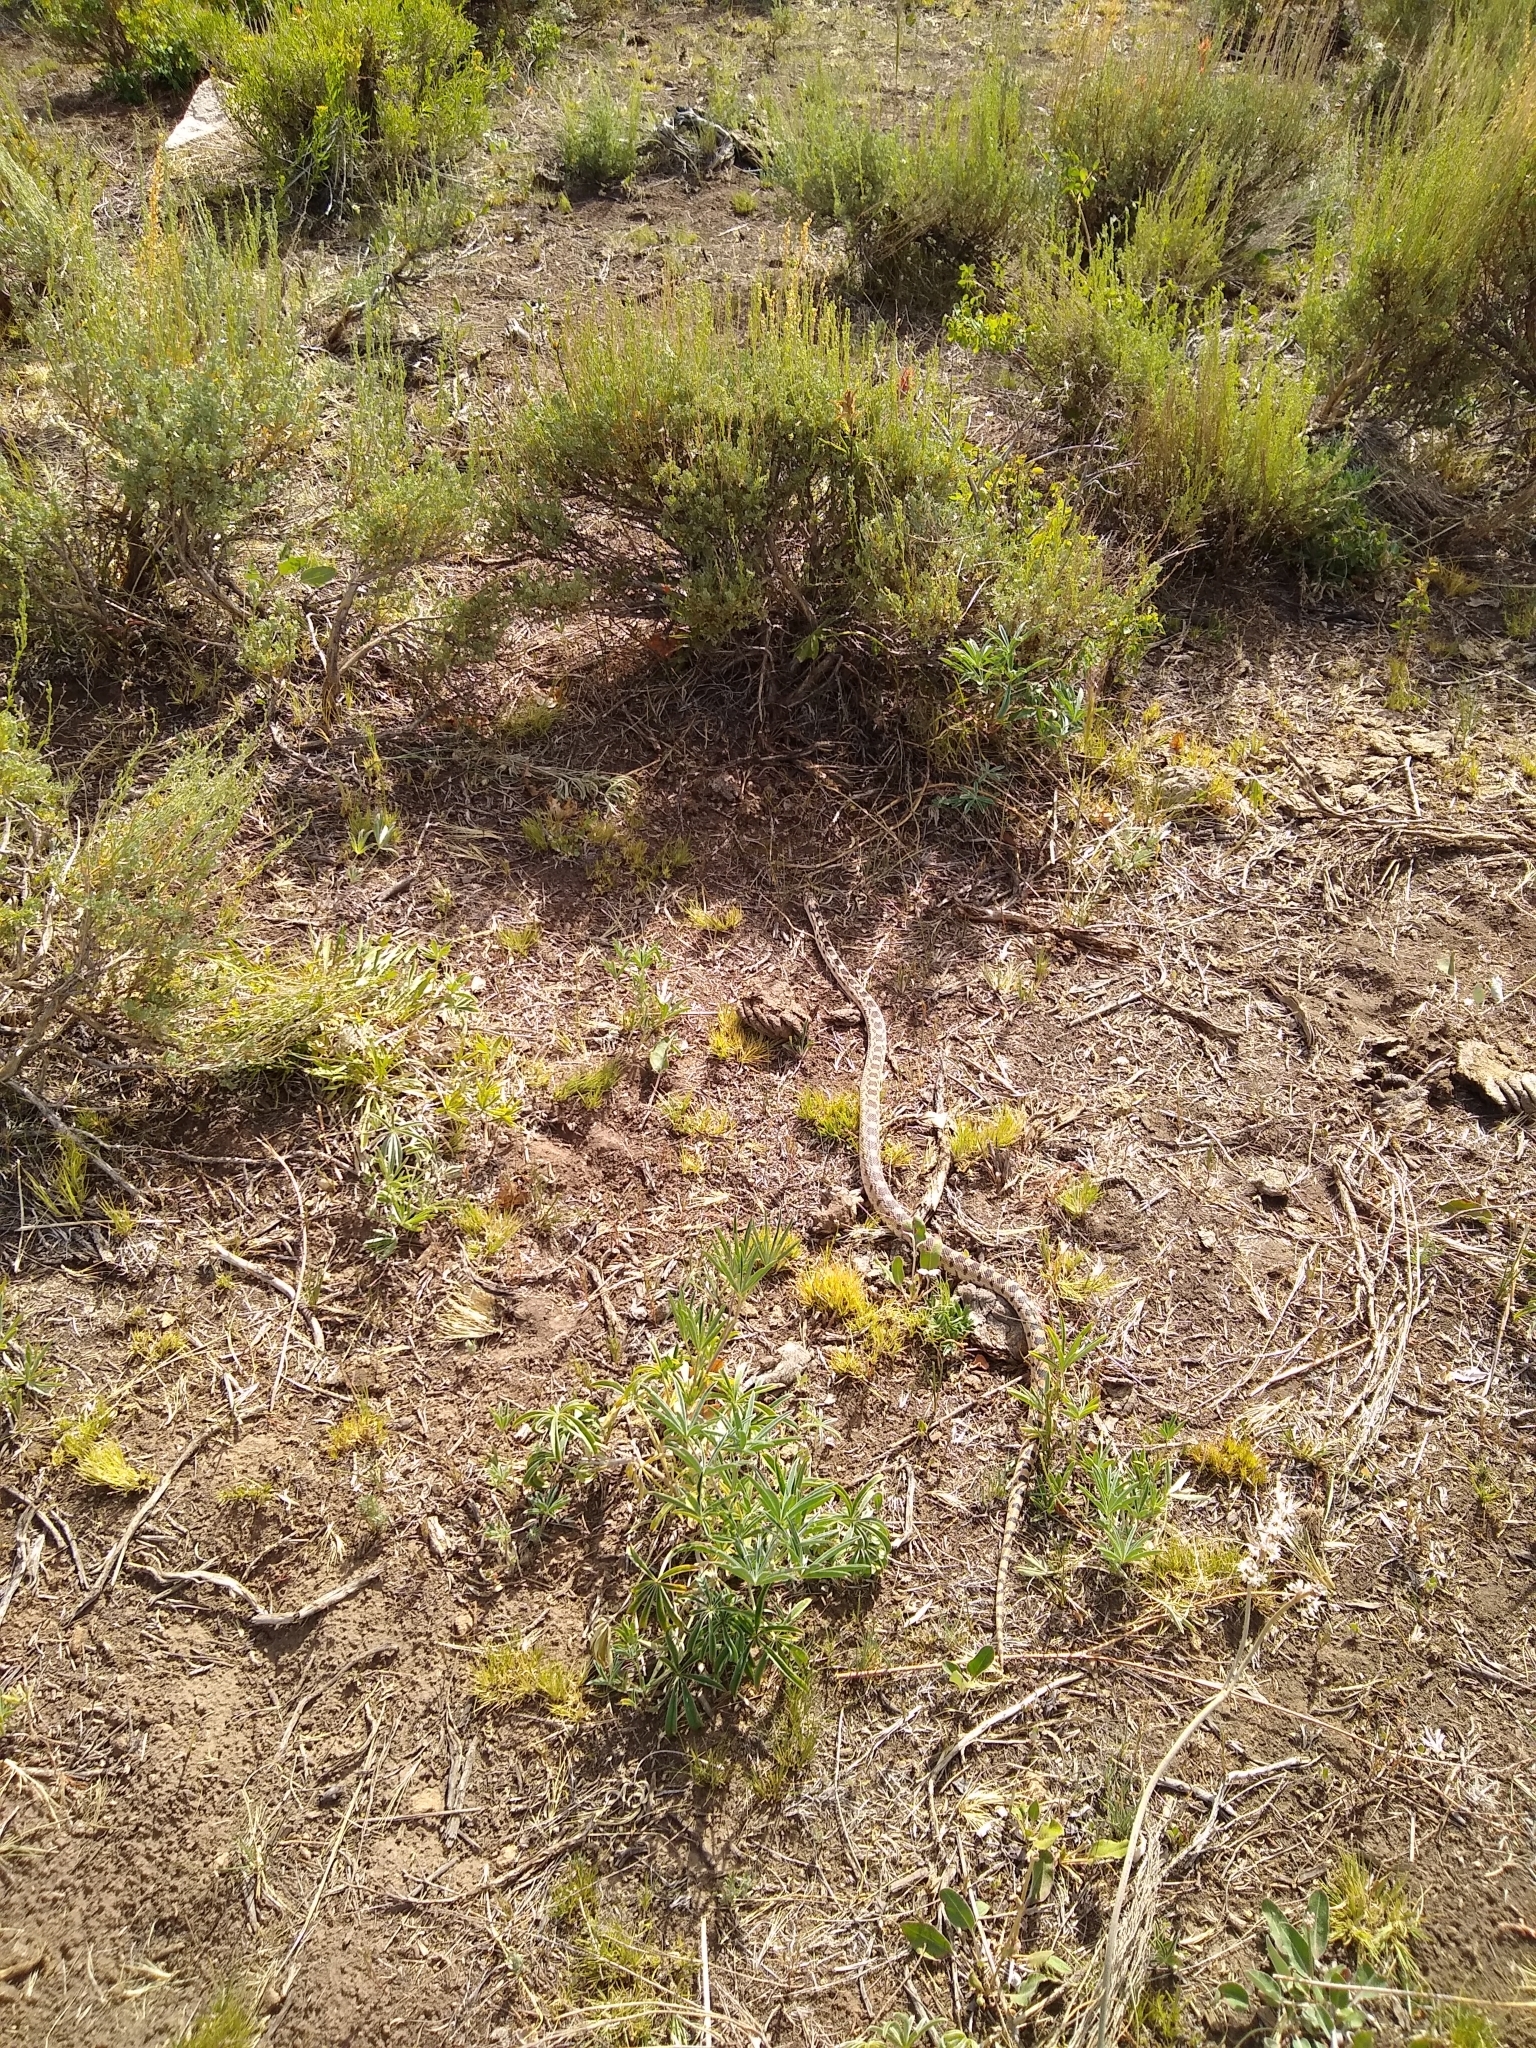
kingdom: Animalia
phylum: Chordata
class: Squamata
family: Colubridae
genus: Pituophis
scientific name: Pituophis catenifer
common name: Gopher snake
